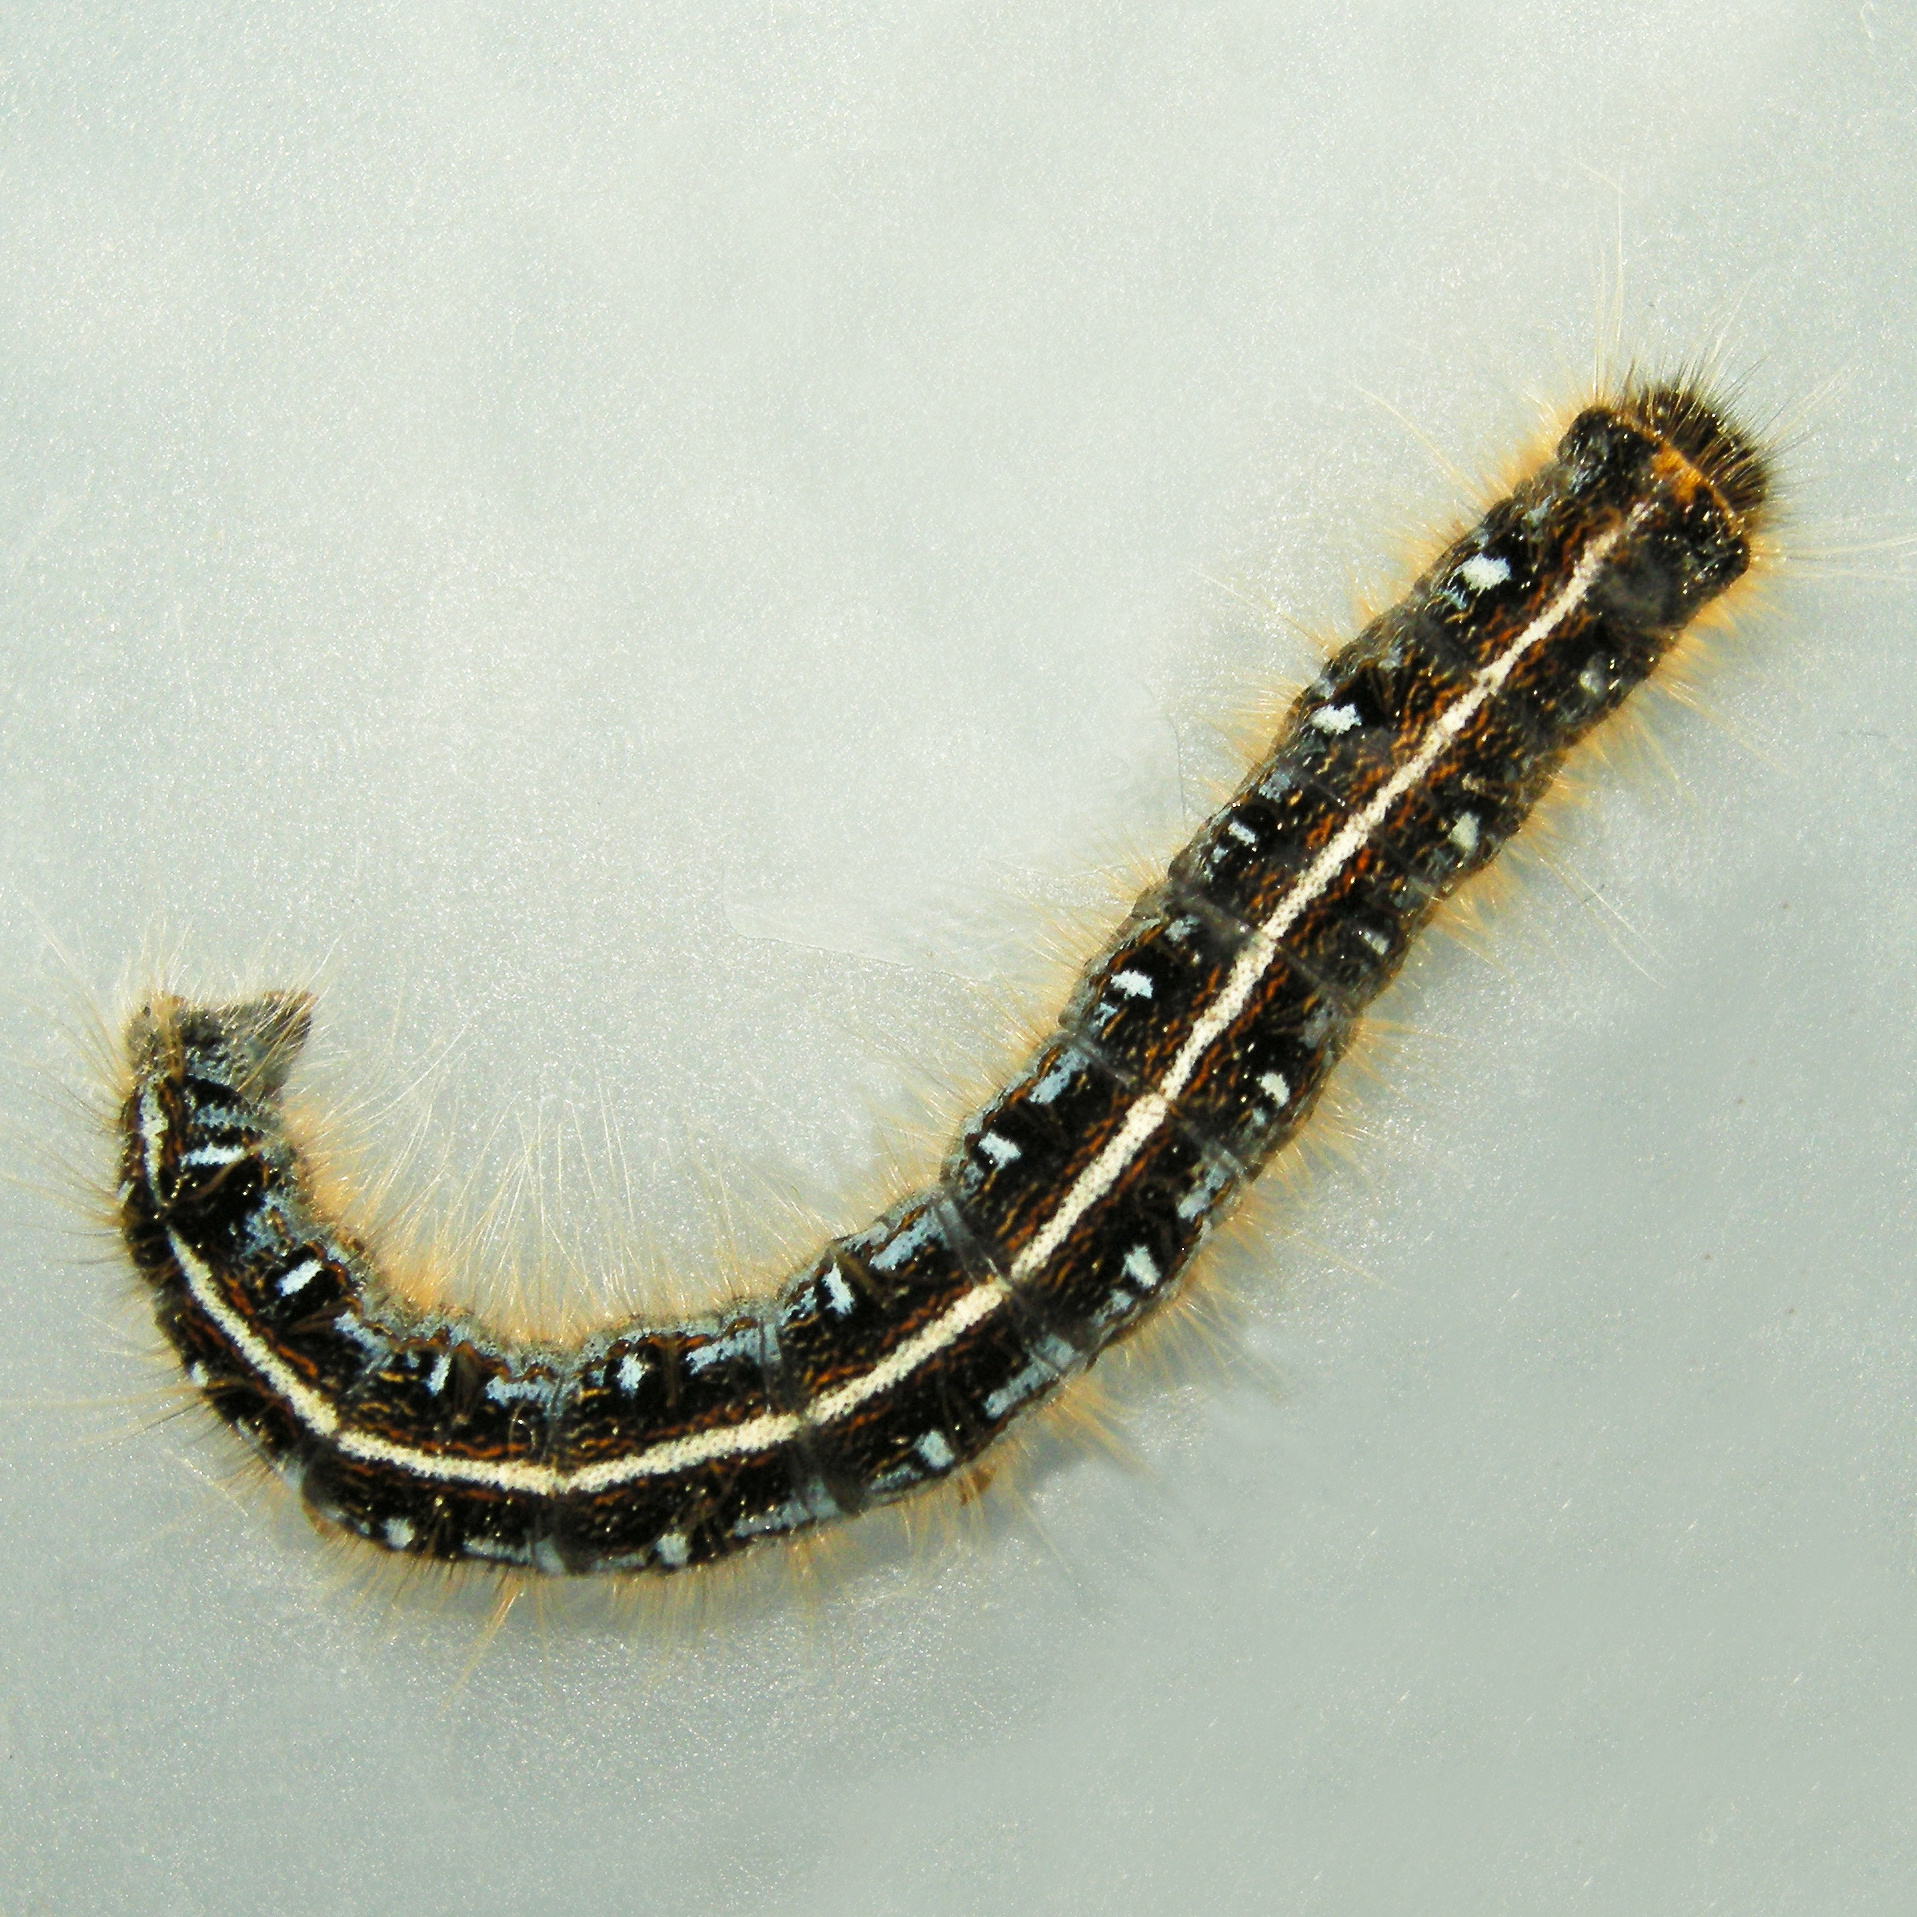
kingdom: Animalia
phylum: Arthropoda
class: Insecta
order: Lepidoptera
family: Lasiocampidae
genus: Malacosoma
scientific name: Malacosoma americana
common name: Eastern tent caterpillar moth
